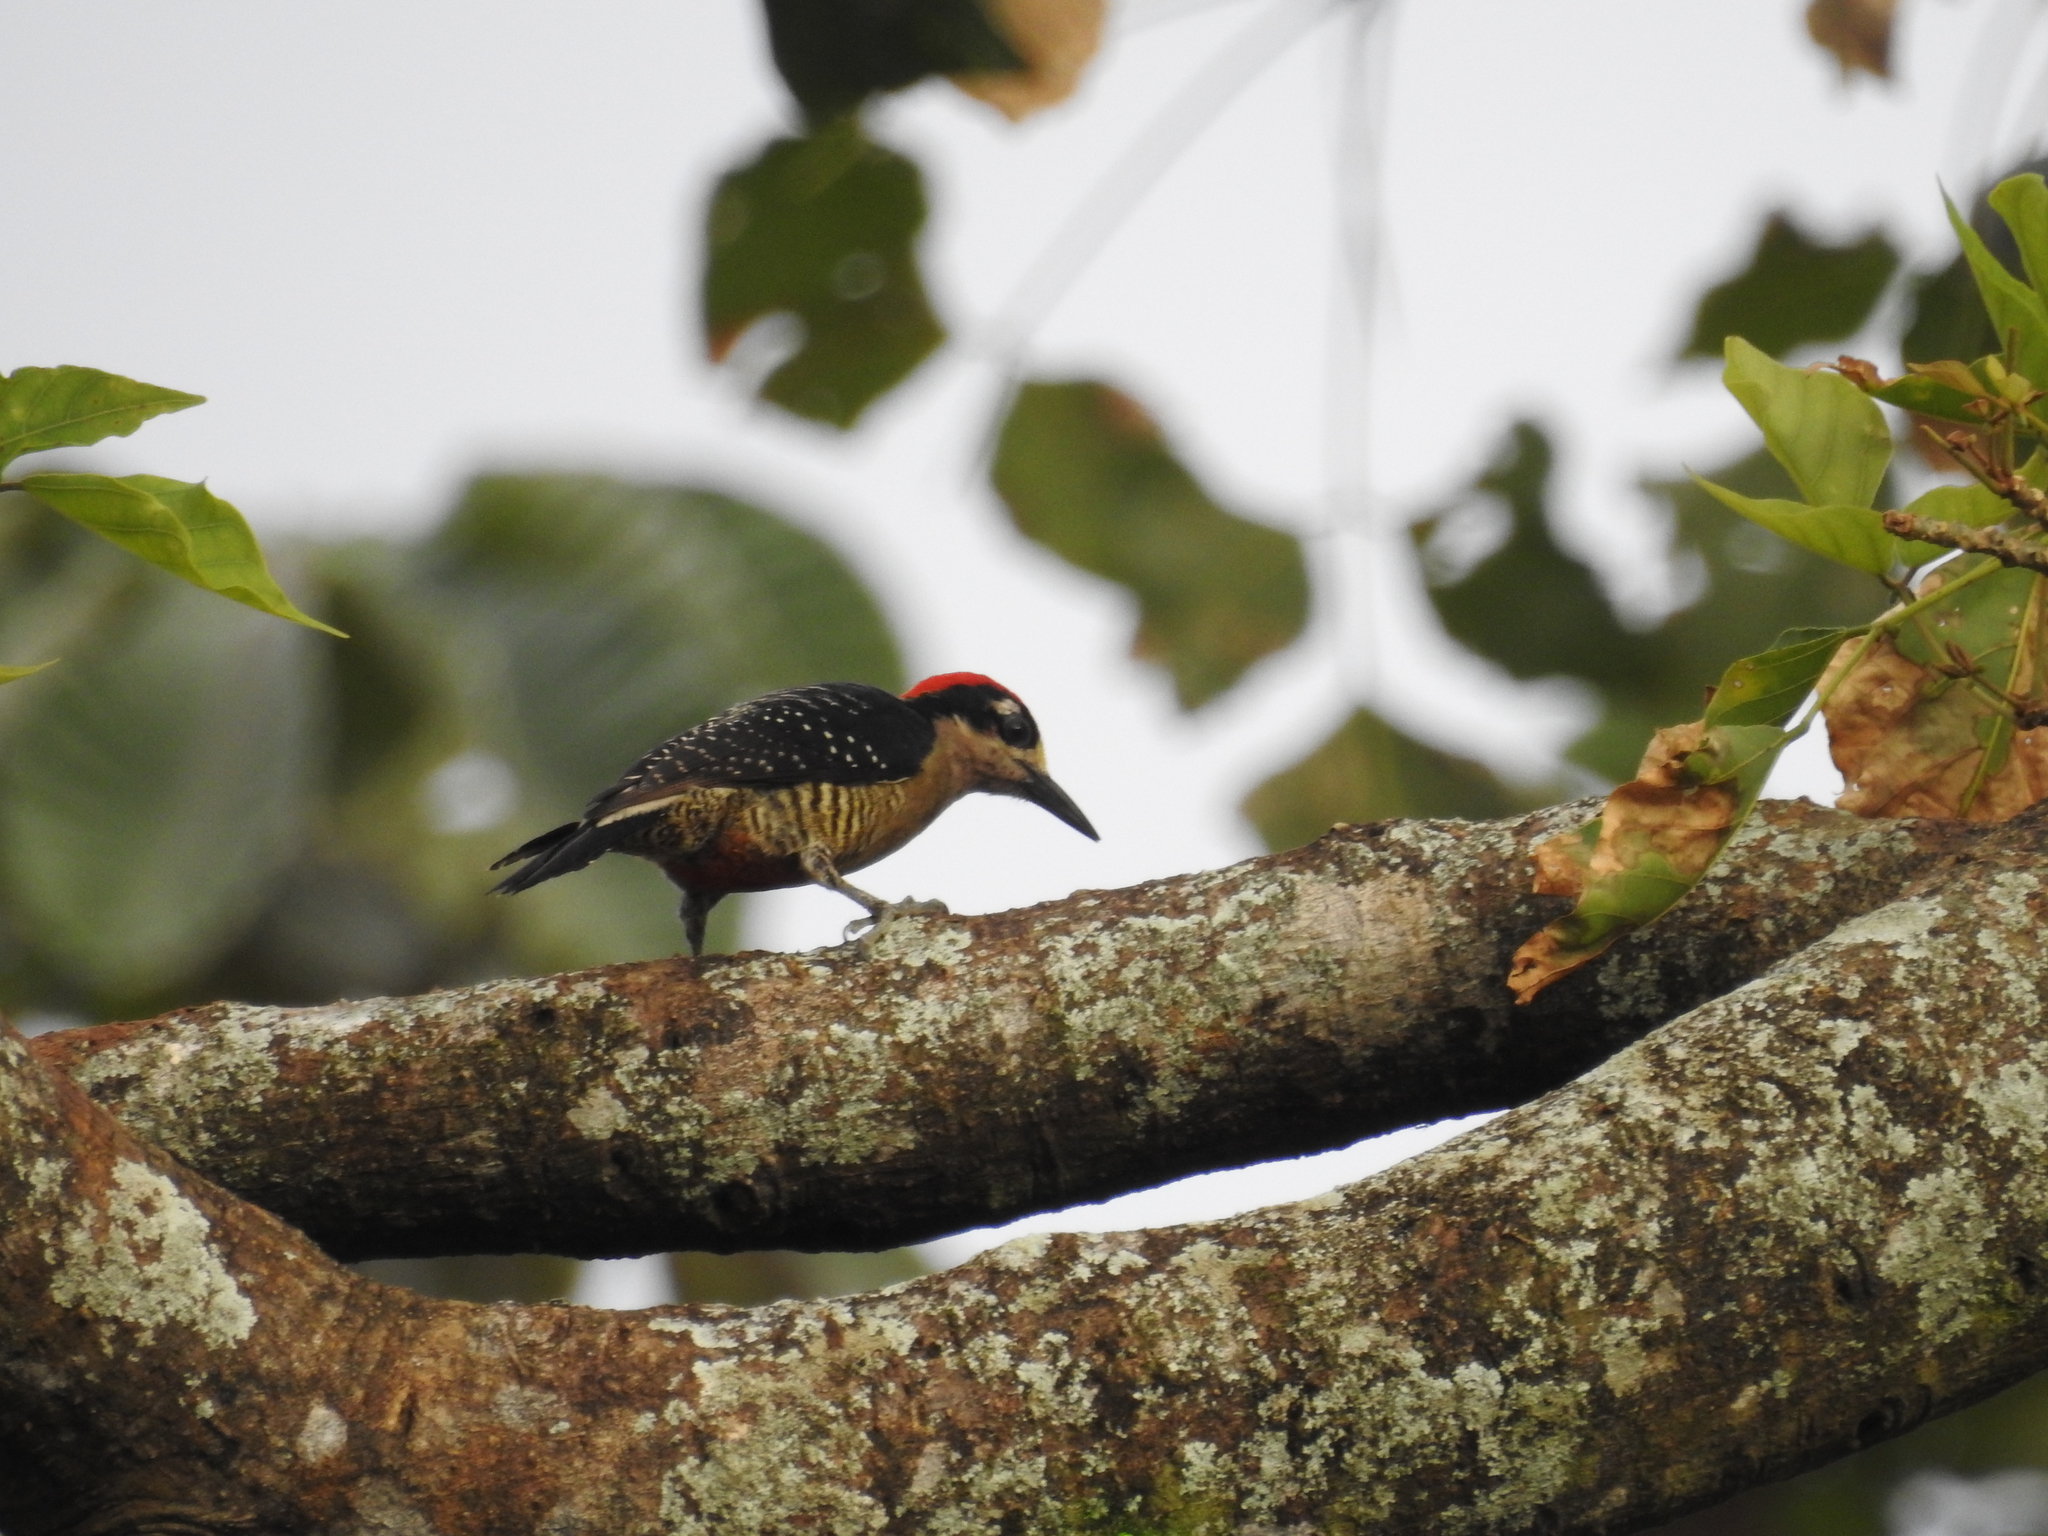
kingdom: Animalia
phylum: Chordata
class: Aves
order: Piciformes
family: Picidae
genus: Melanerpes
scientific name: Melanerpes pucherani
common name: Black-cheeked woodpecker
